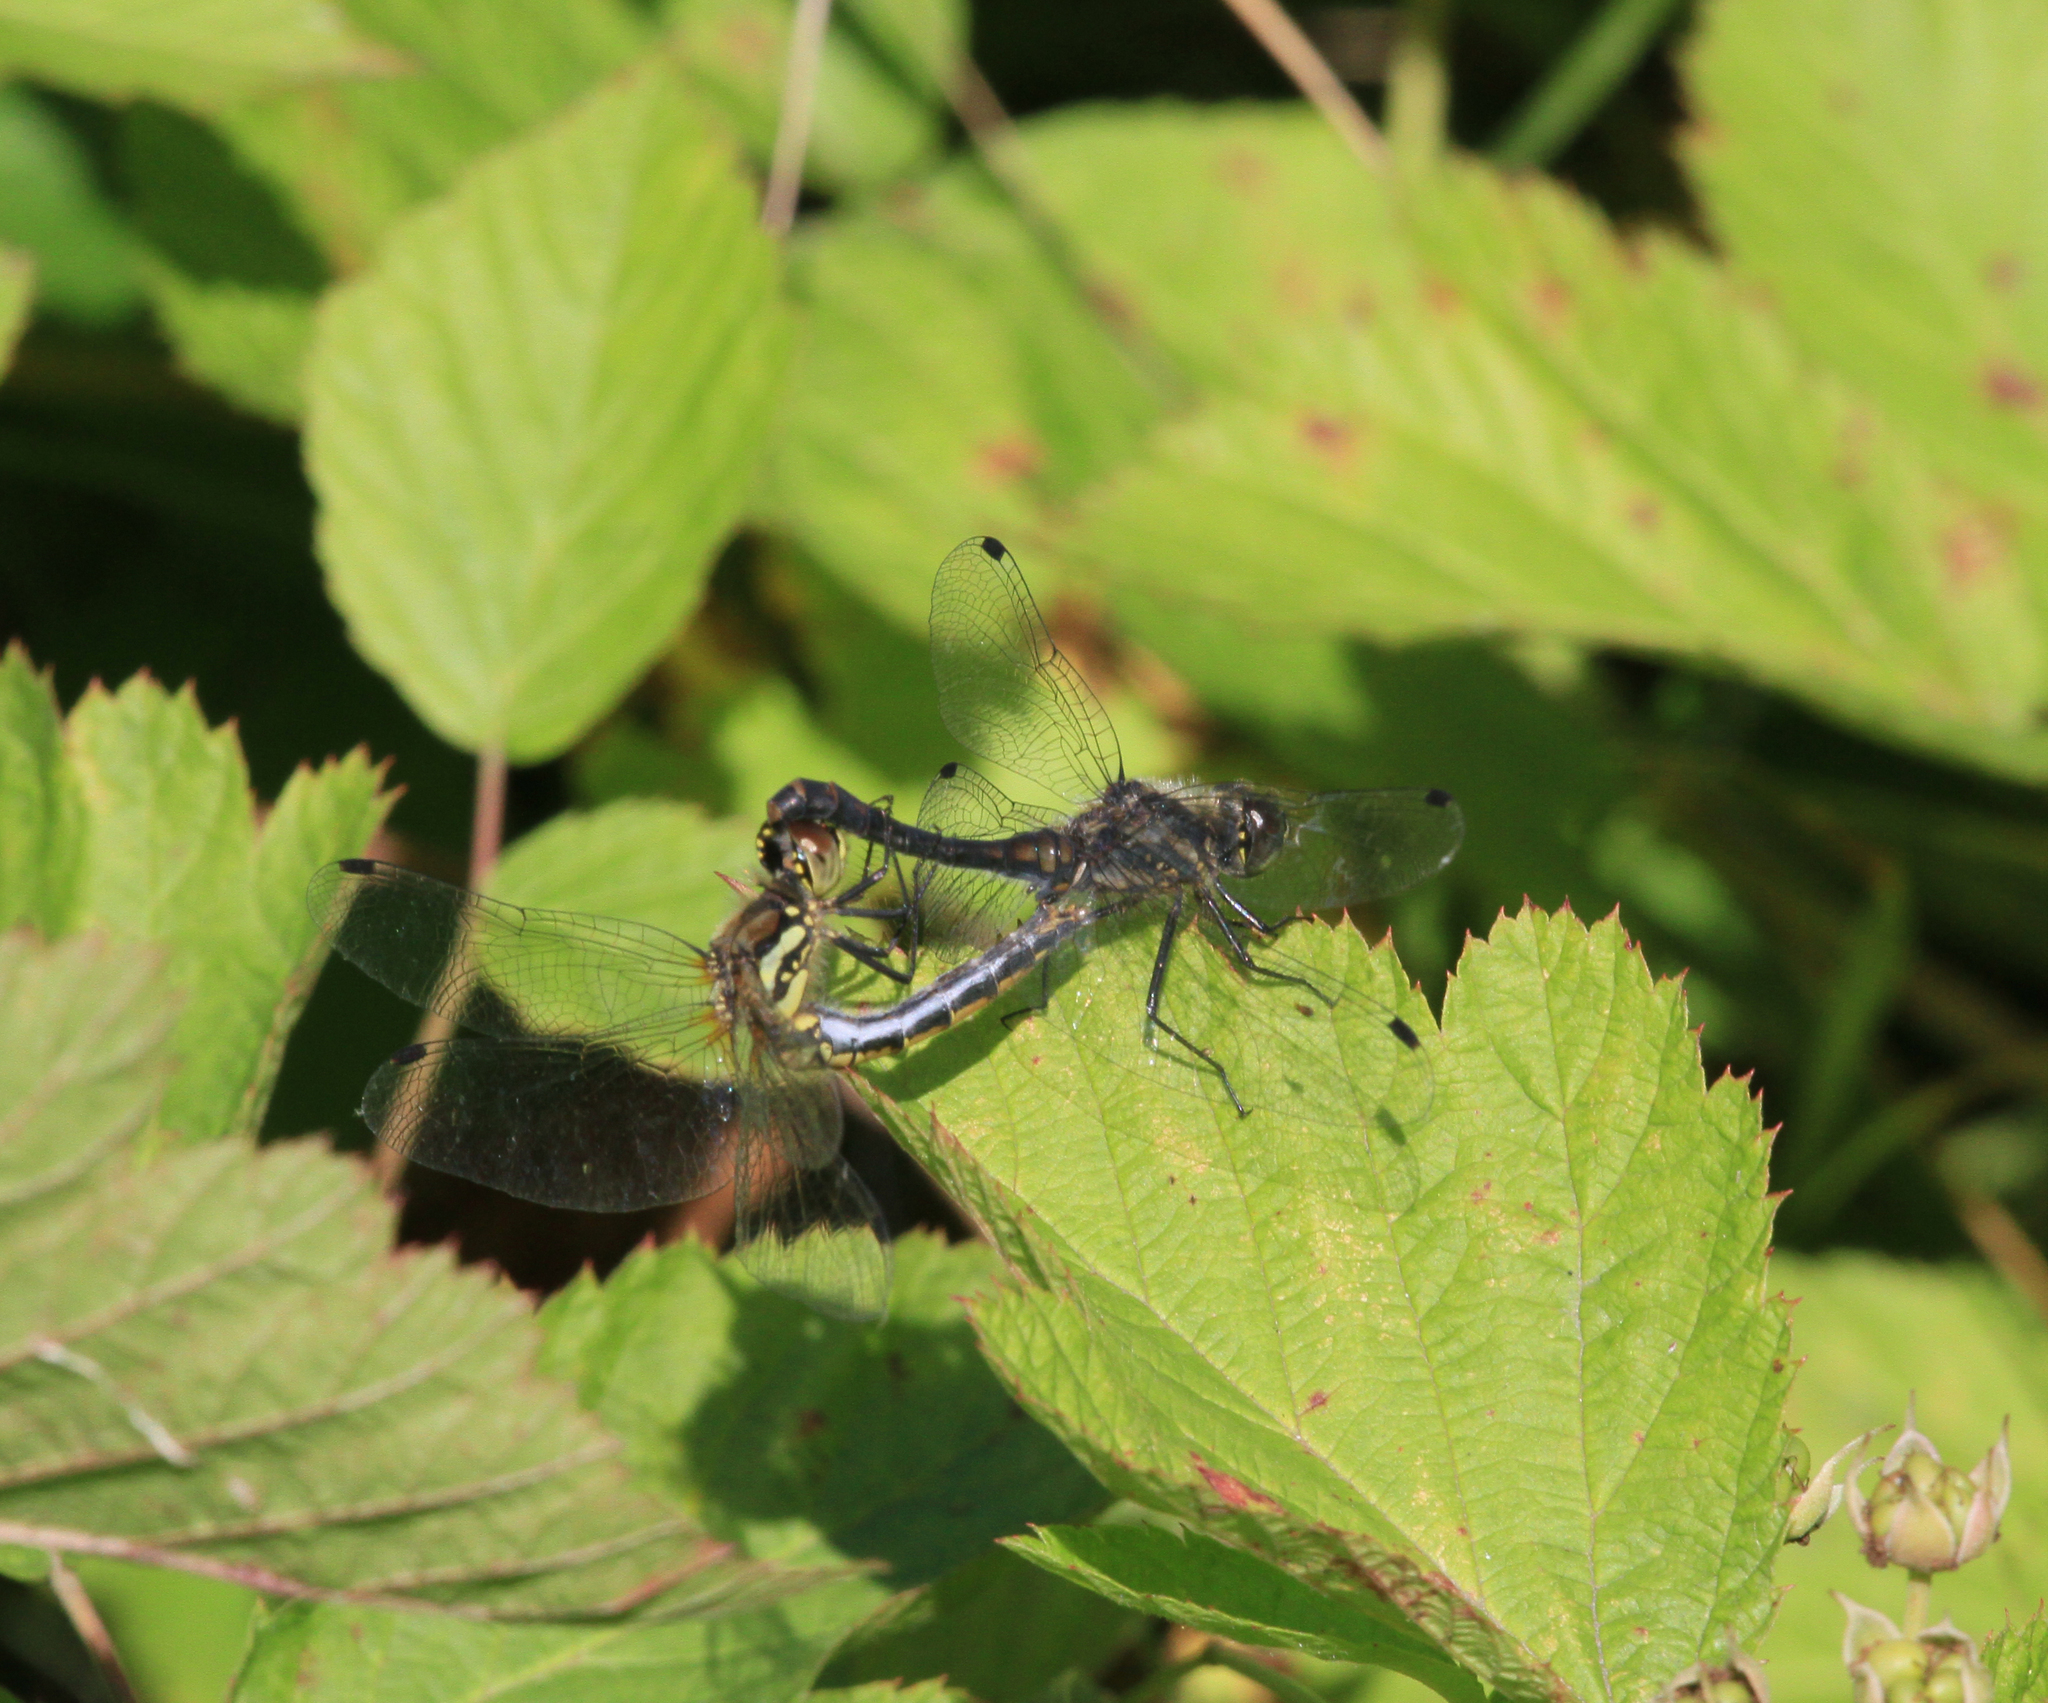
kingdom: Animalia
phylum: Arthropoda
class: Insecta
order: Odonata
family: Libellulidae
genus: Sympetrum
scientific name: Sympetrum danae
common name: Black darter
